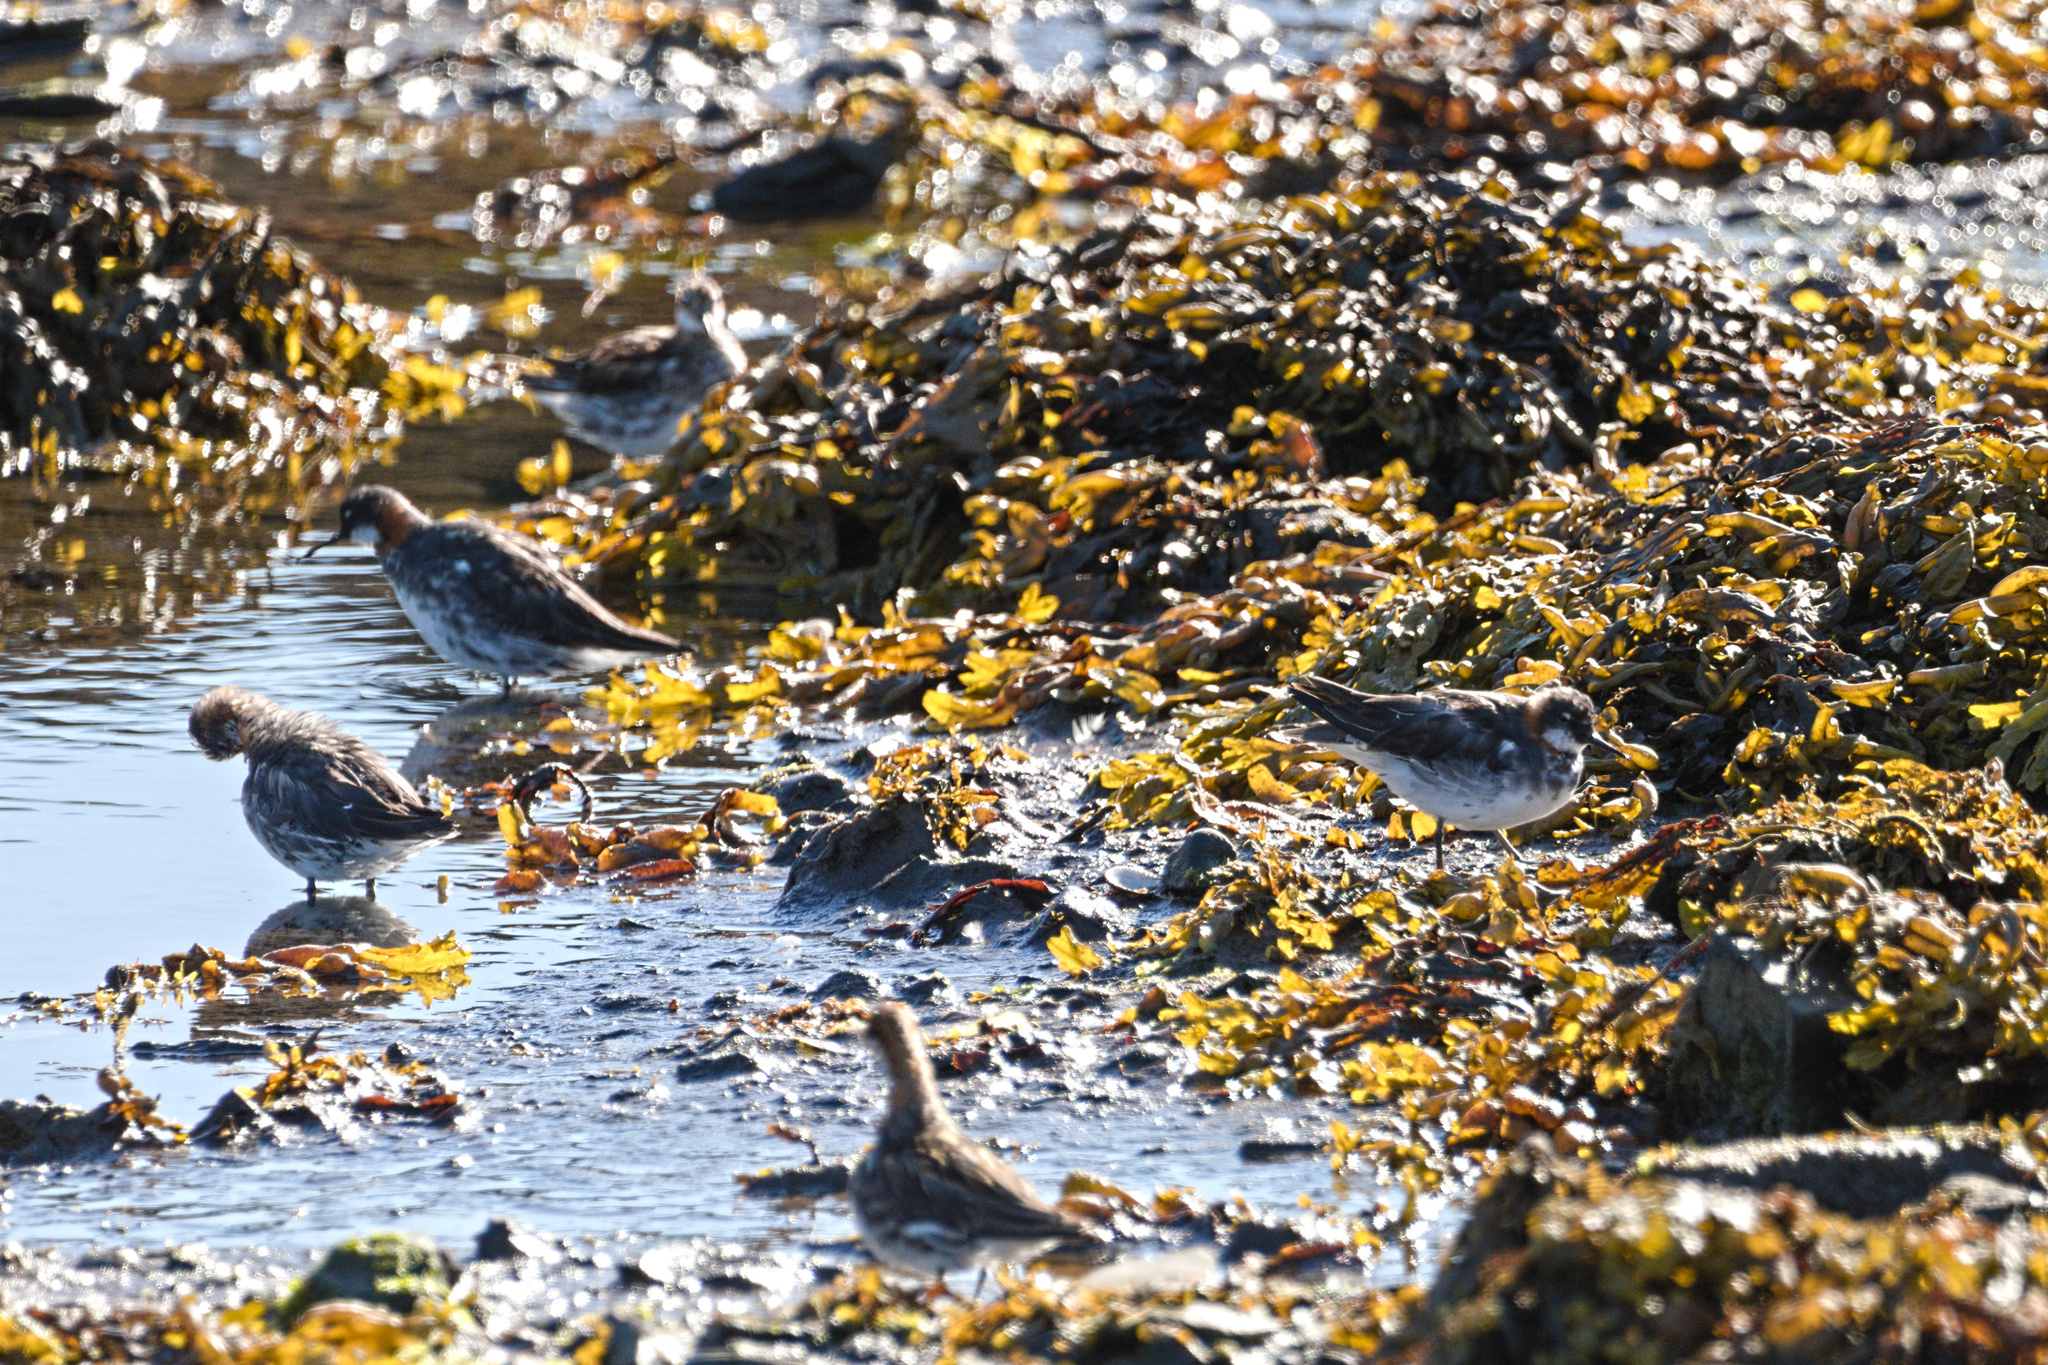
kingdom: Animalia
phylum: Chordata
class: Aves
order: Charadriiformes
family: Scolopacidae
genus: Phalaropus
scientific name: Phalaropus lobatus
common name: Red-necked phalarope
